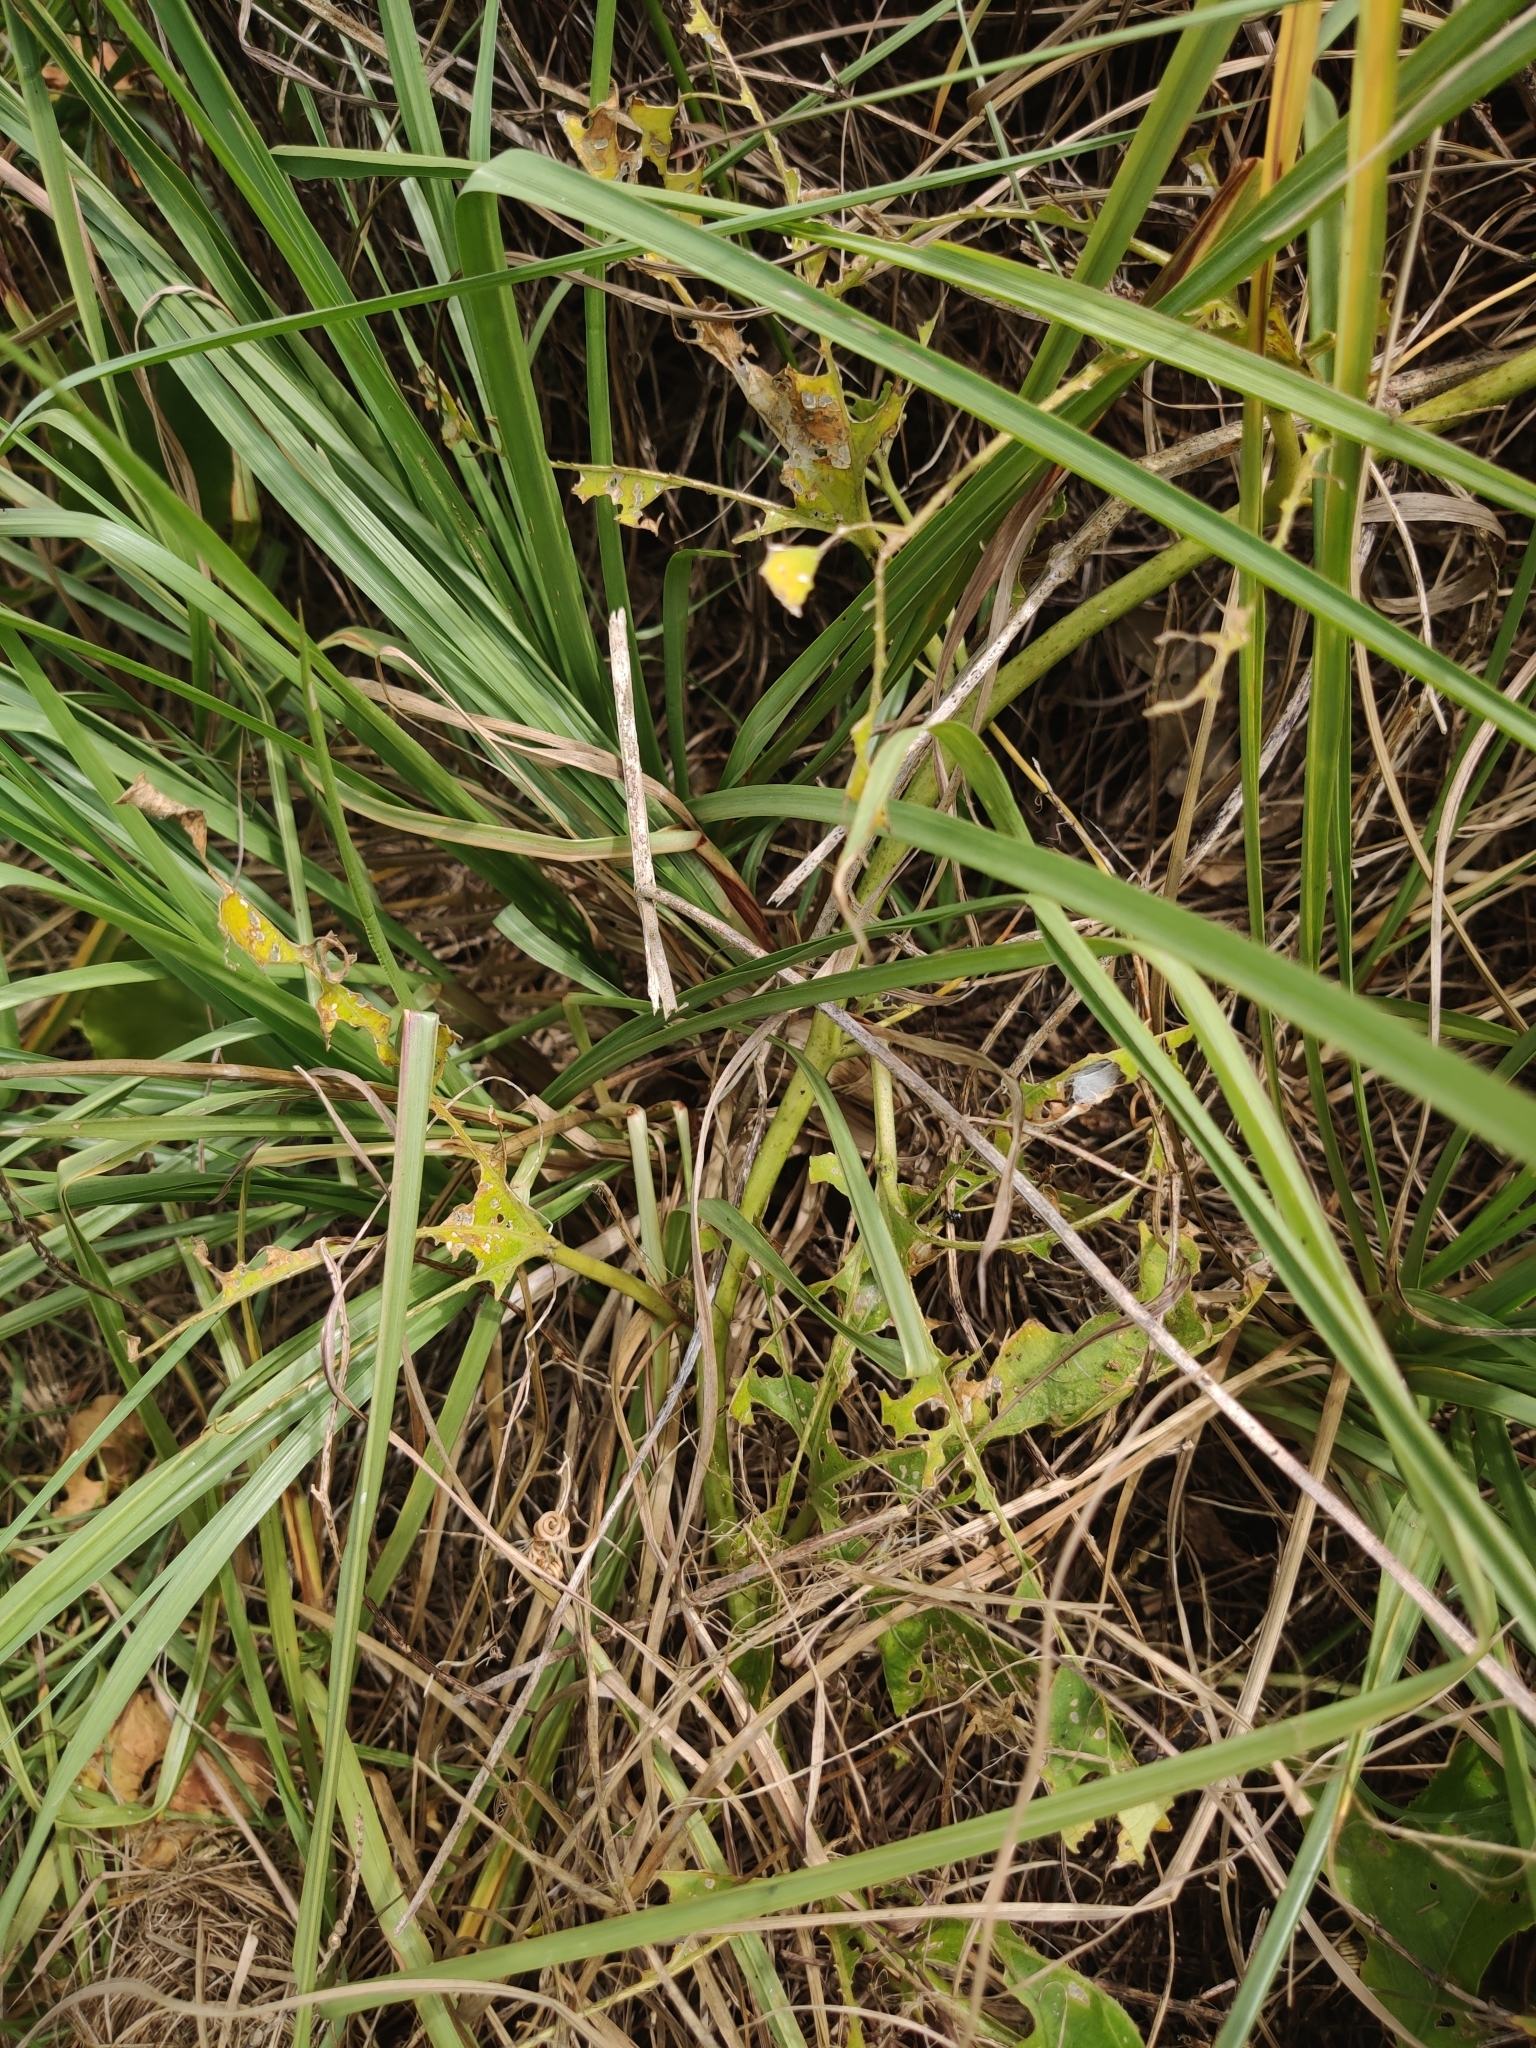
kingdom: Plantae
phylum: Tracheophyta
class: Magnoliopsida
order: Malpighiales
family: Passifloraceae
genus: Passiflora
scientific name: Passiflora incarnata
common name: Apricot-vine
